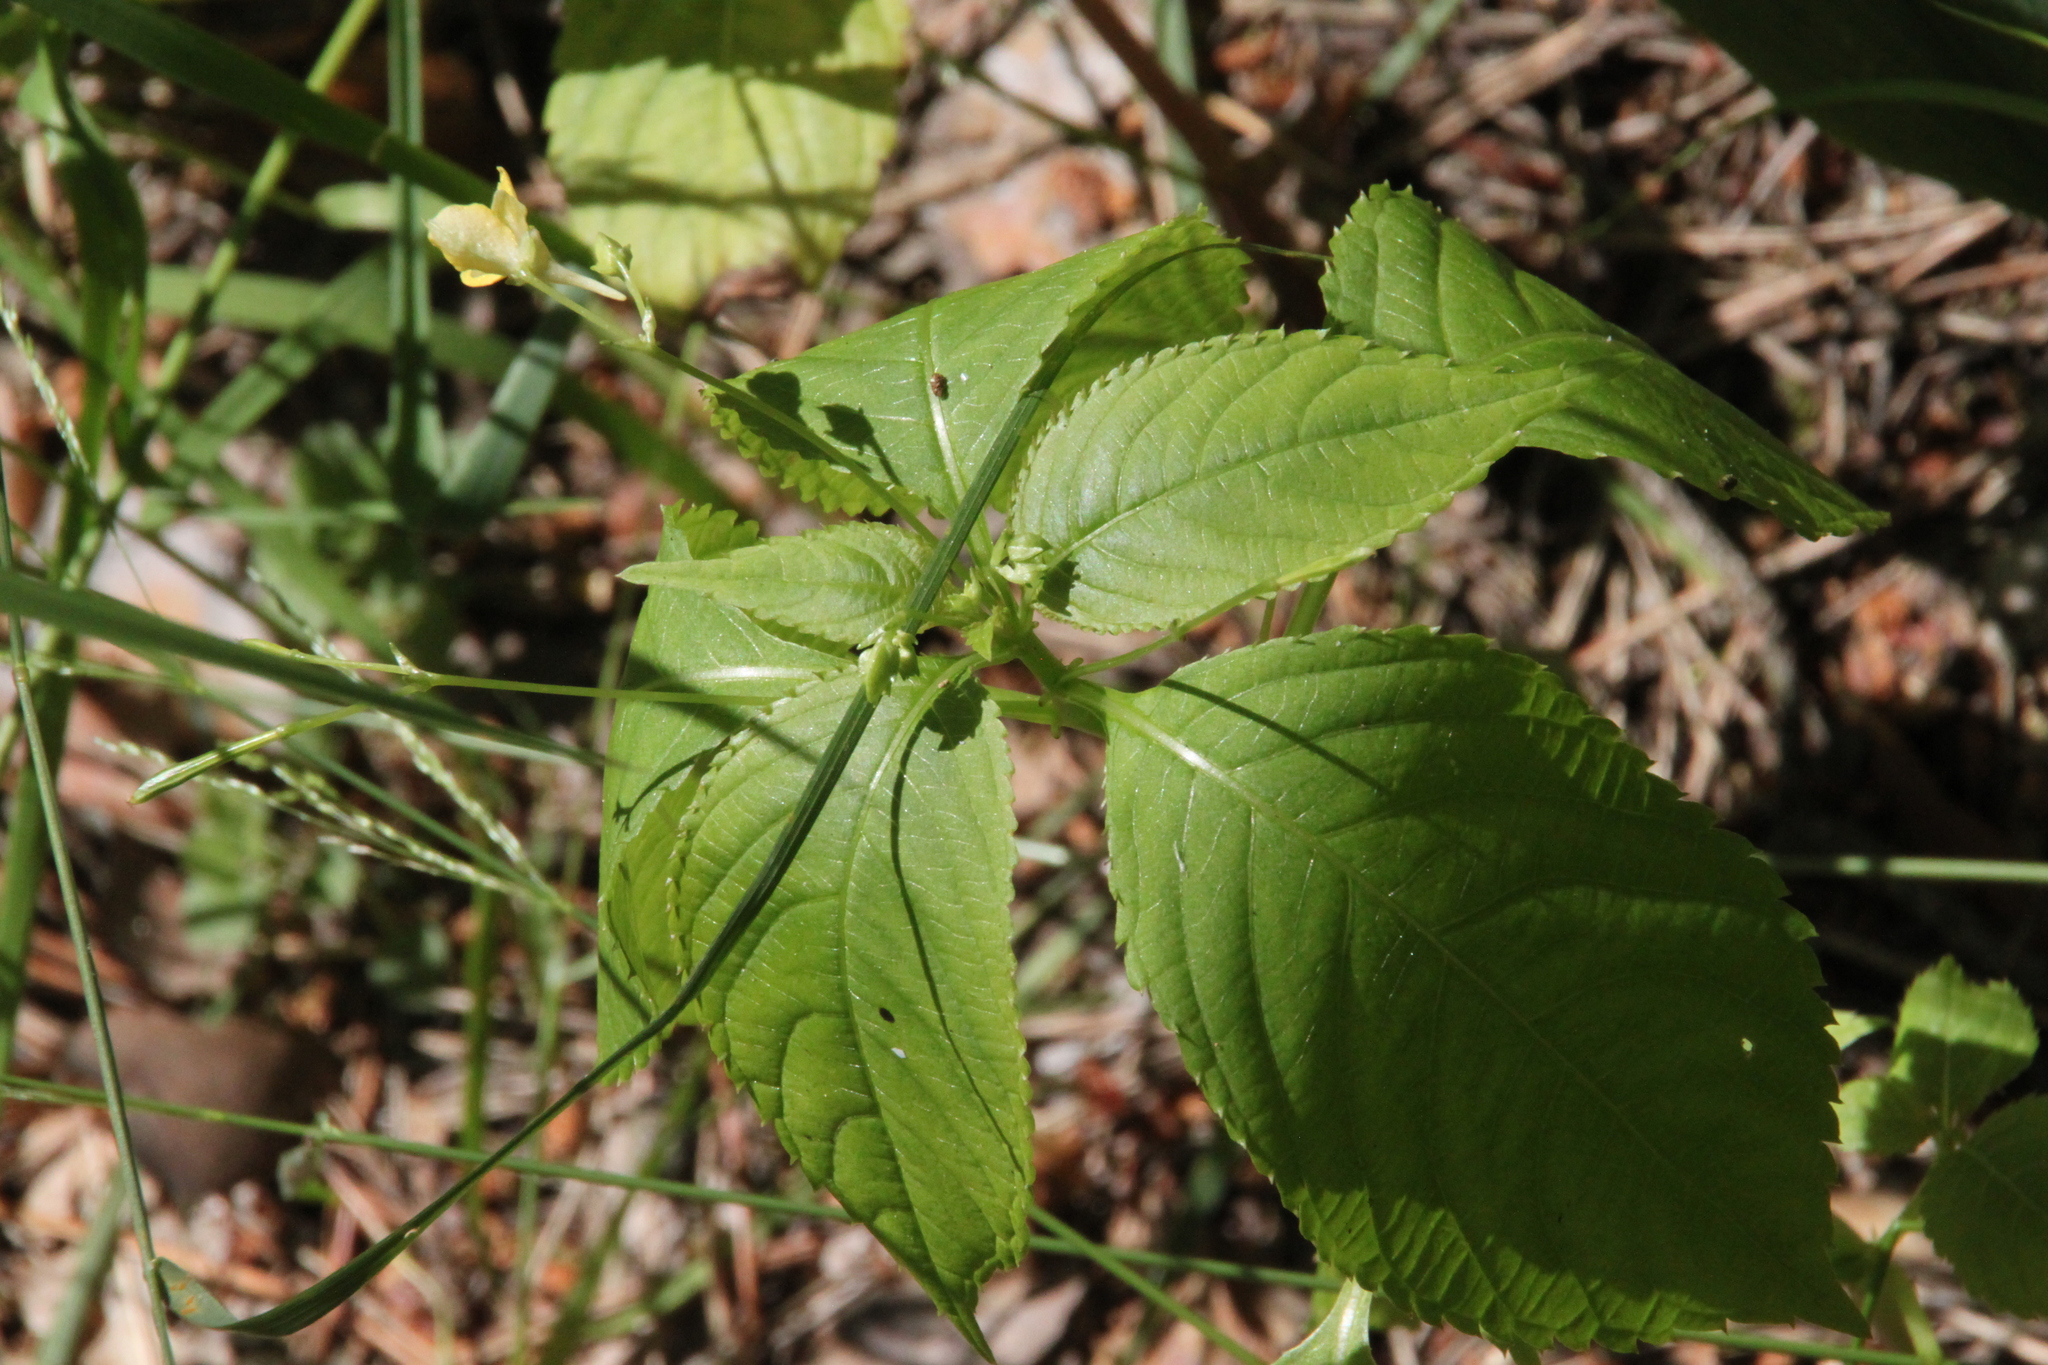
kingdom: Plantae
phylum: Tracheophyta
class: Magnoliopsida
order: Ericales
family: Balsaminaceae
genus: Impatiens
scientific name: Impatiens parviflora
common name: Small balsam
